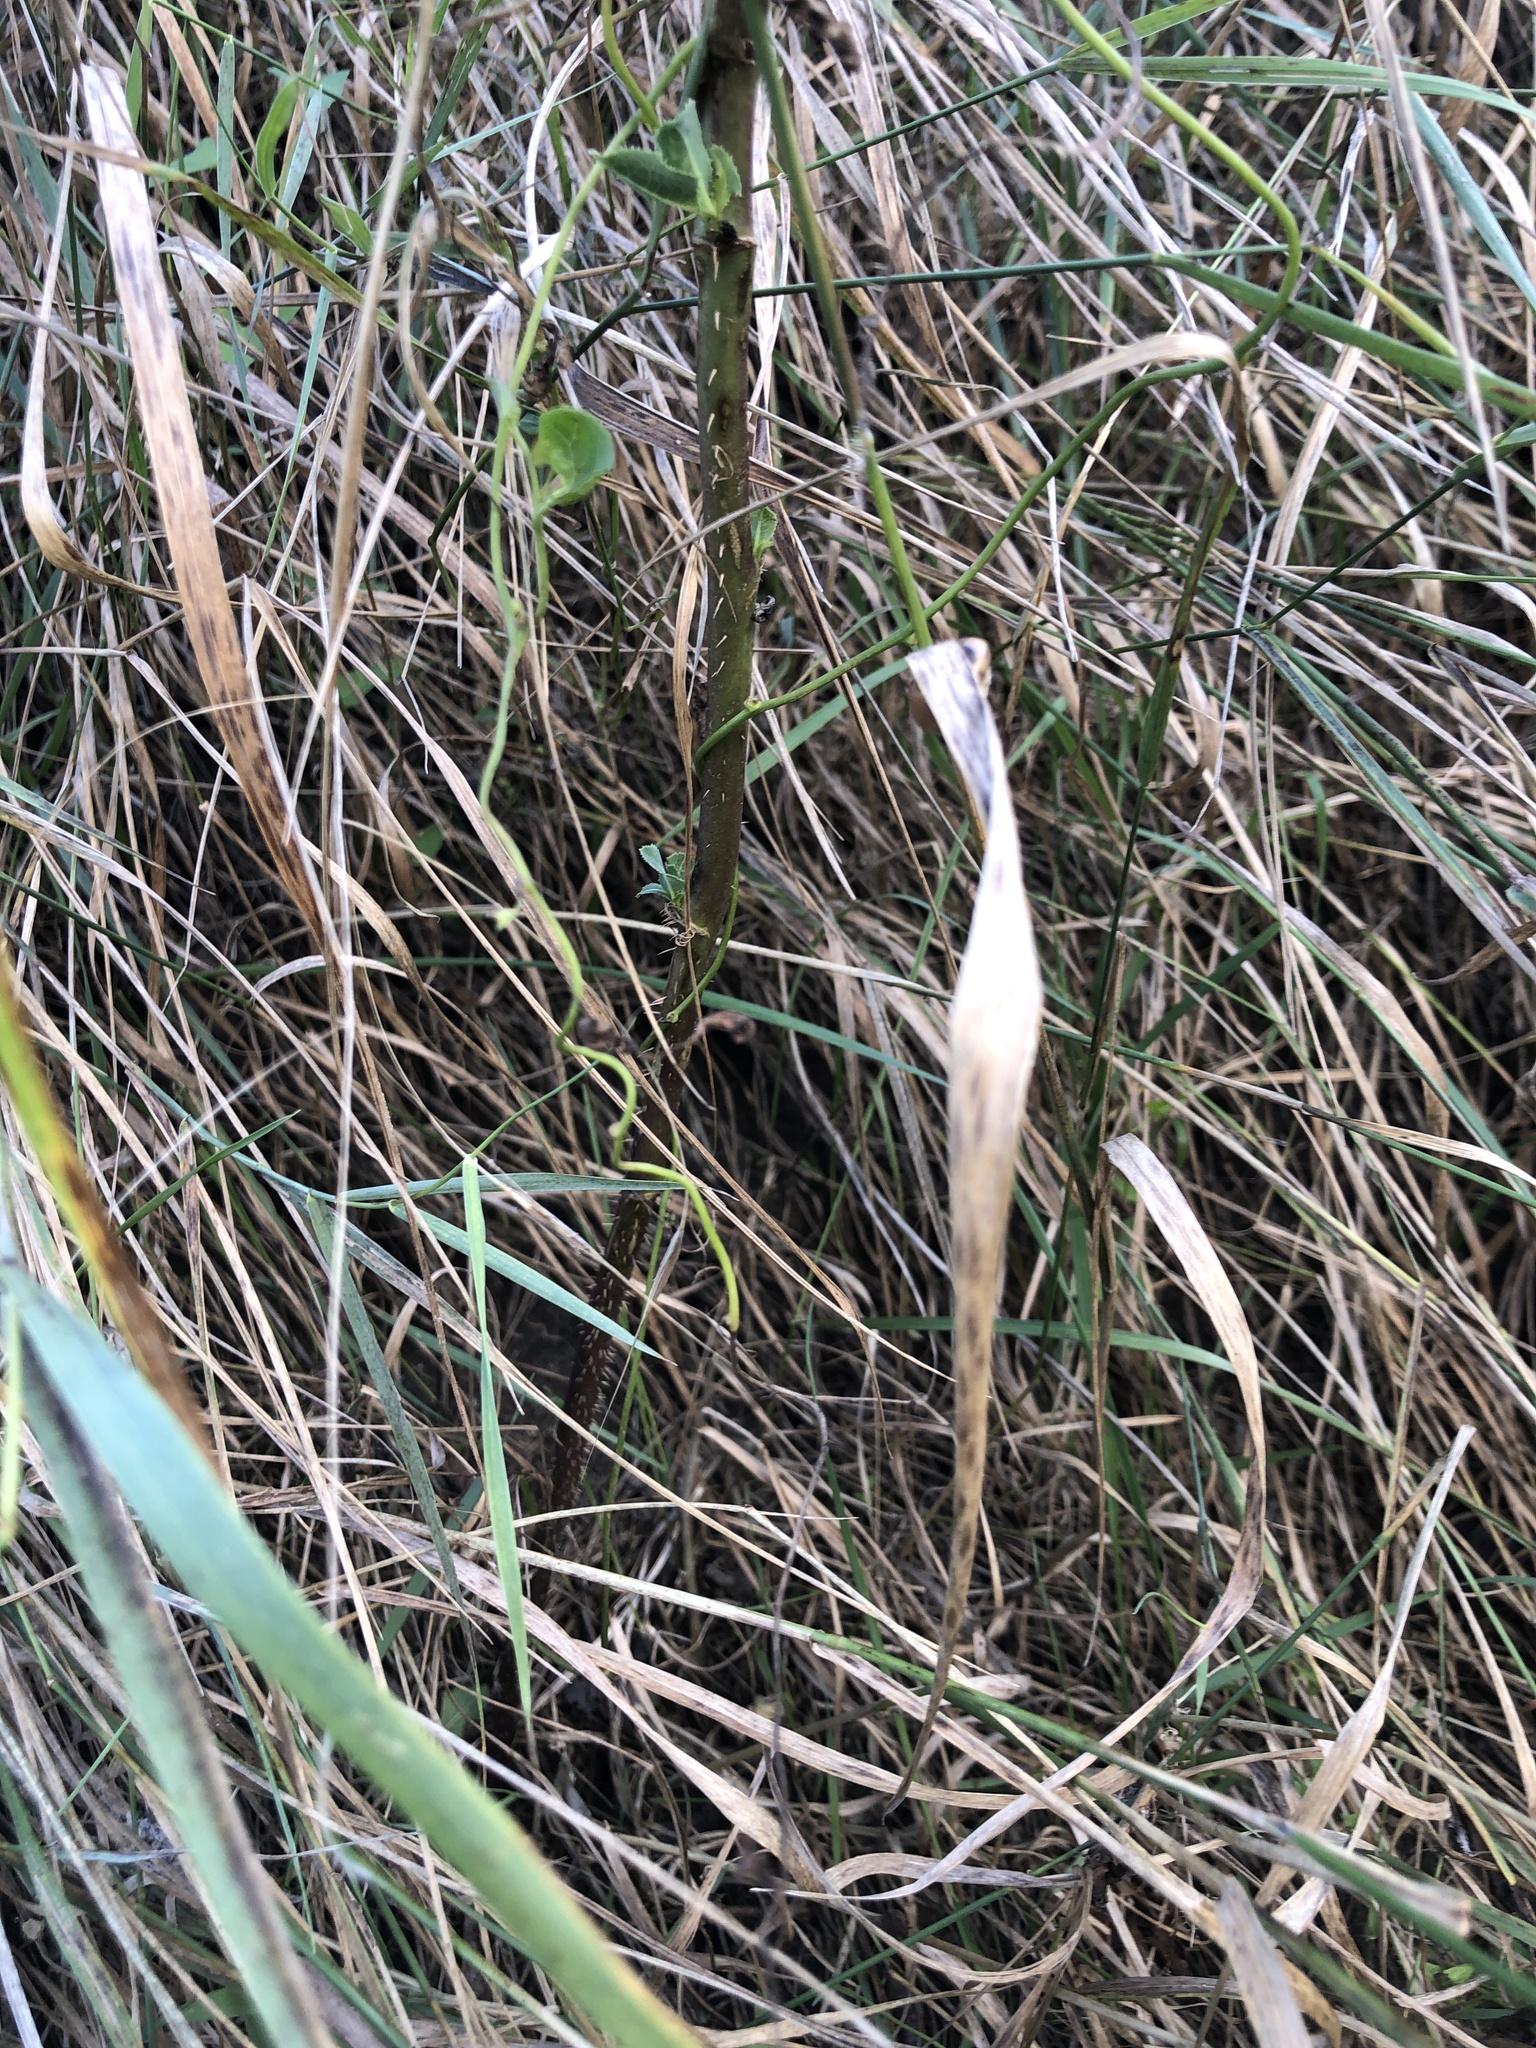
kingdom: Plantae
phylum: Tracheophyta
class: Magnoliopsida
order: Asterales
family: Asteraceae
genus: Lactuca
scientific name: Lactuca serriola
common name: Prickly lettuce
